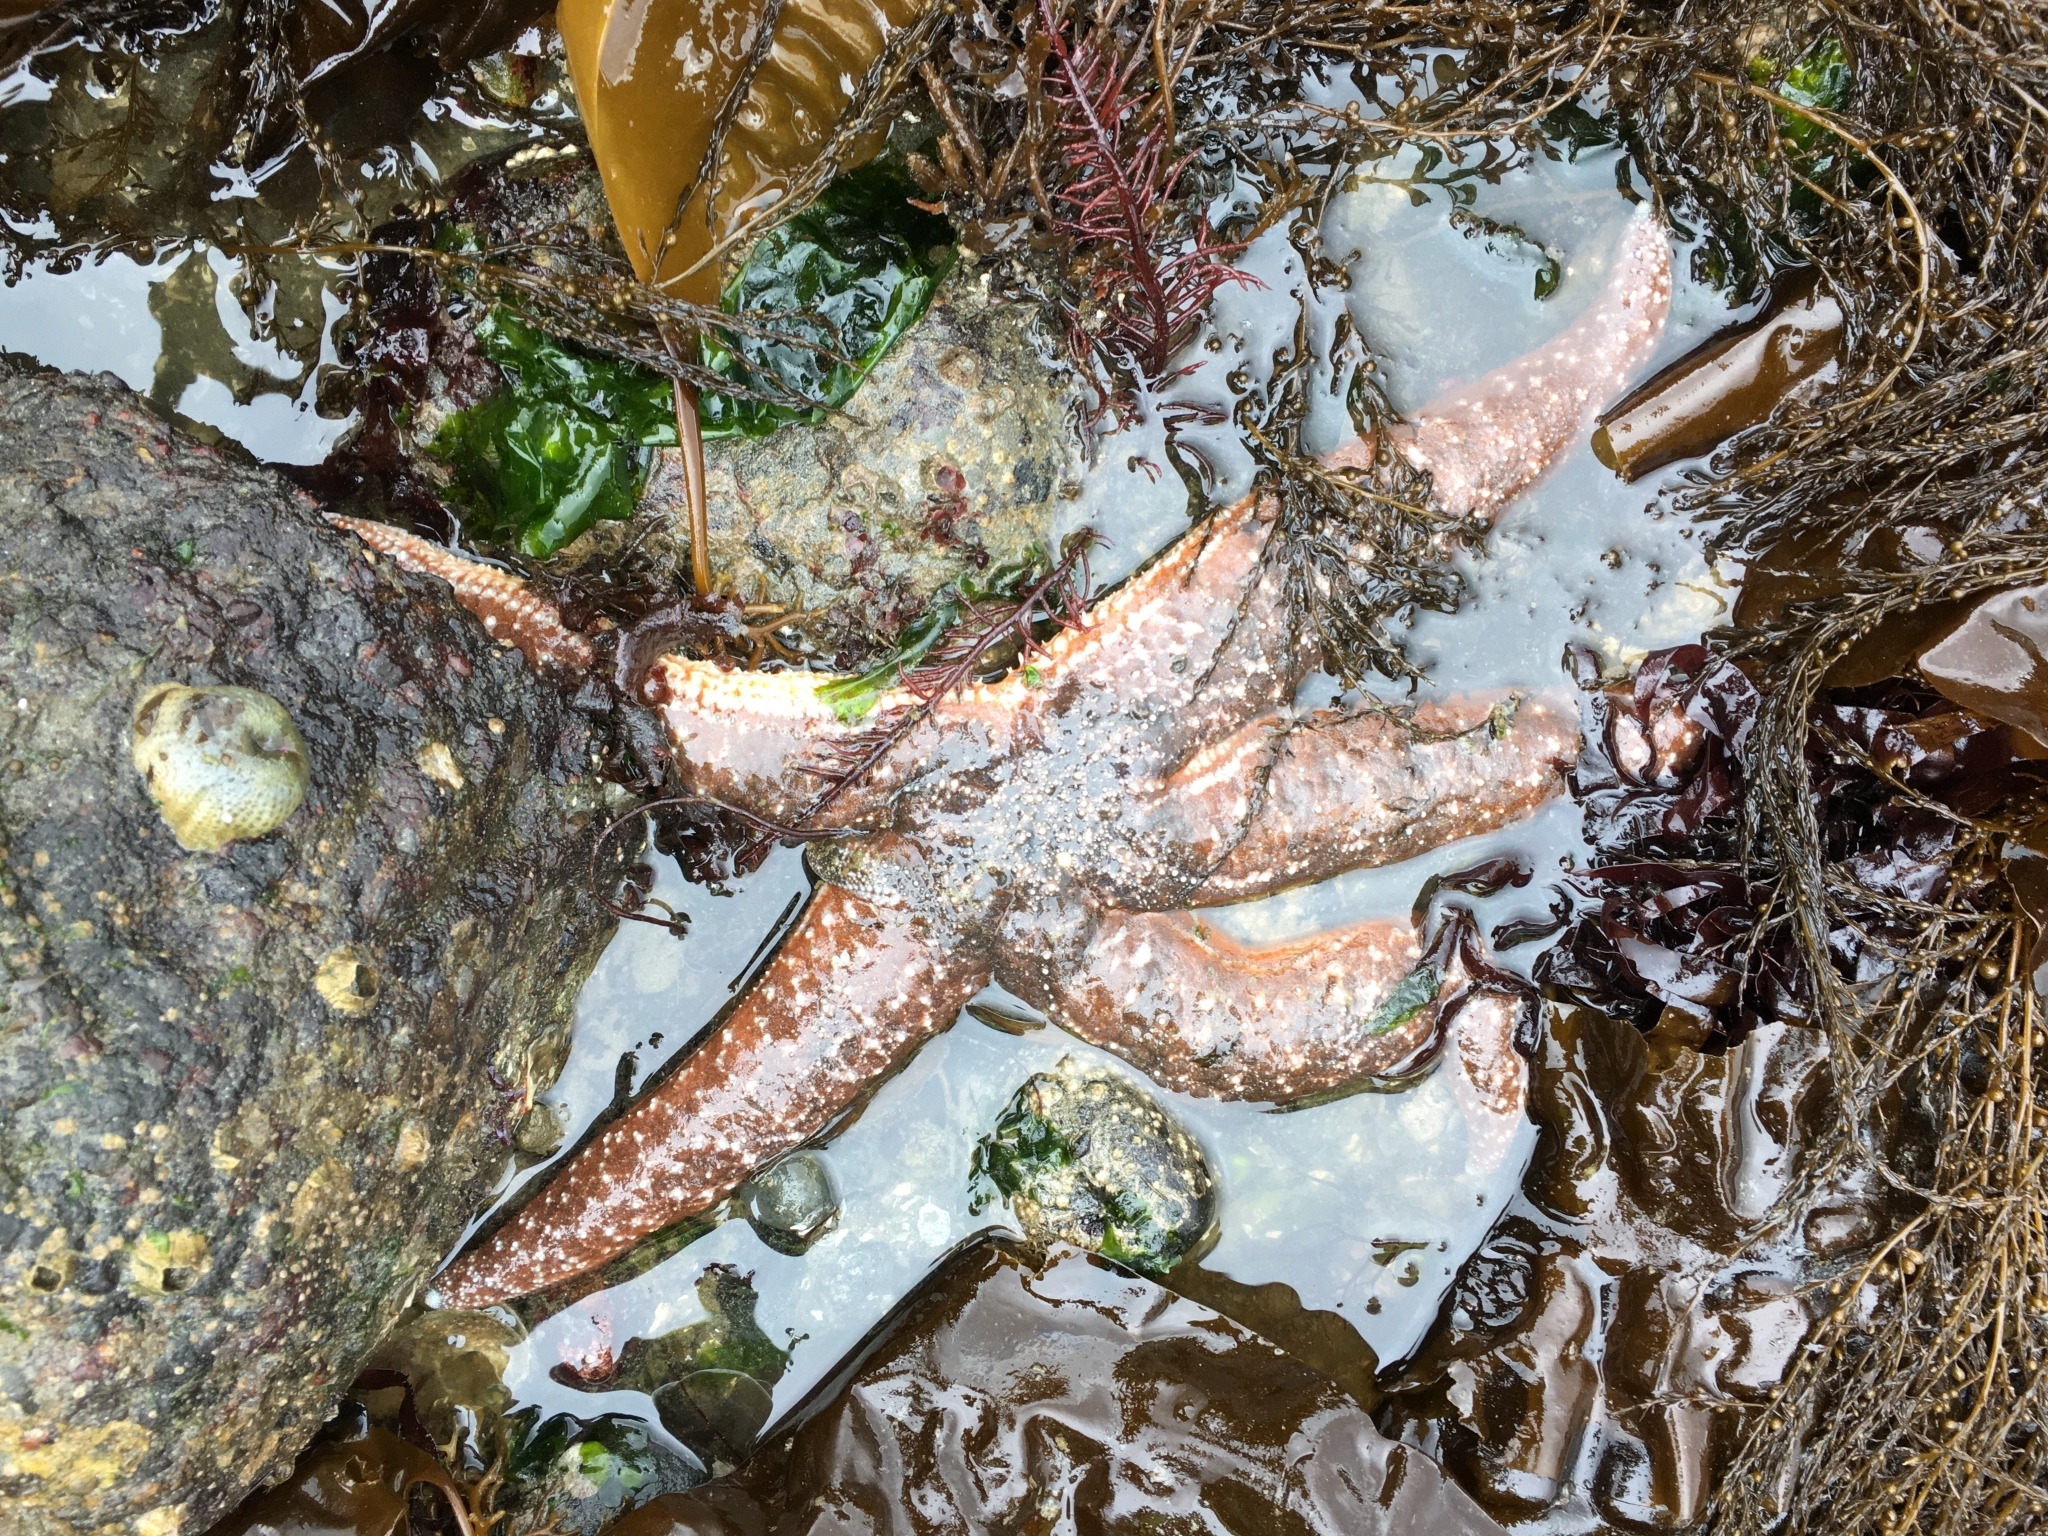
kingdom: Animalia
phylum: Echinodermata
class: Asteroidea
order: Forcipulatida
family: Asteriidae
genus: Evasterias
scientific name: Evasterias troschelii
